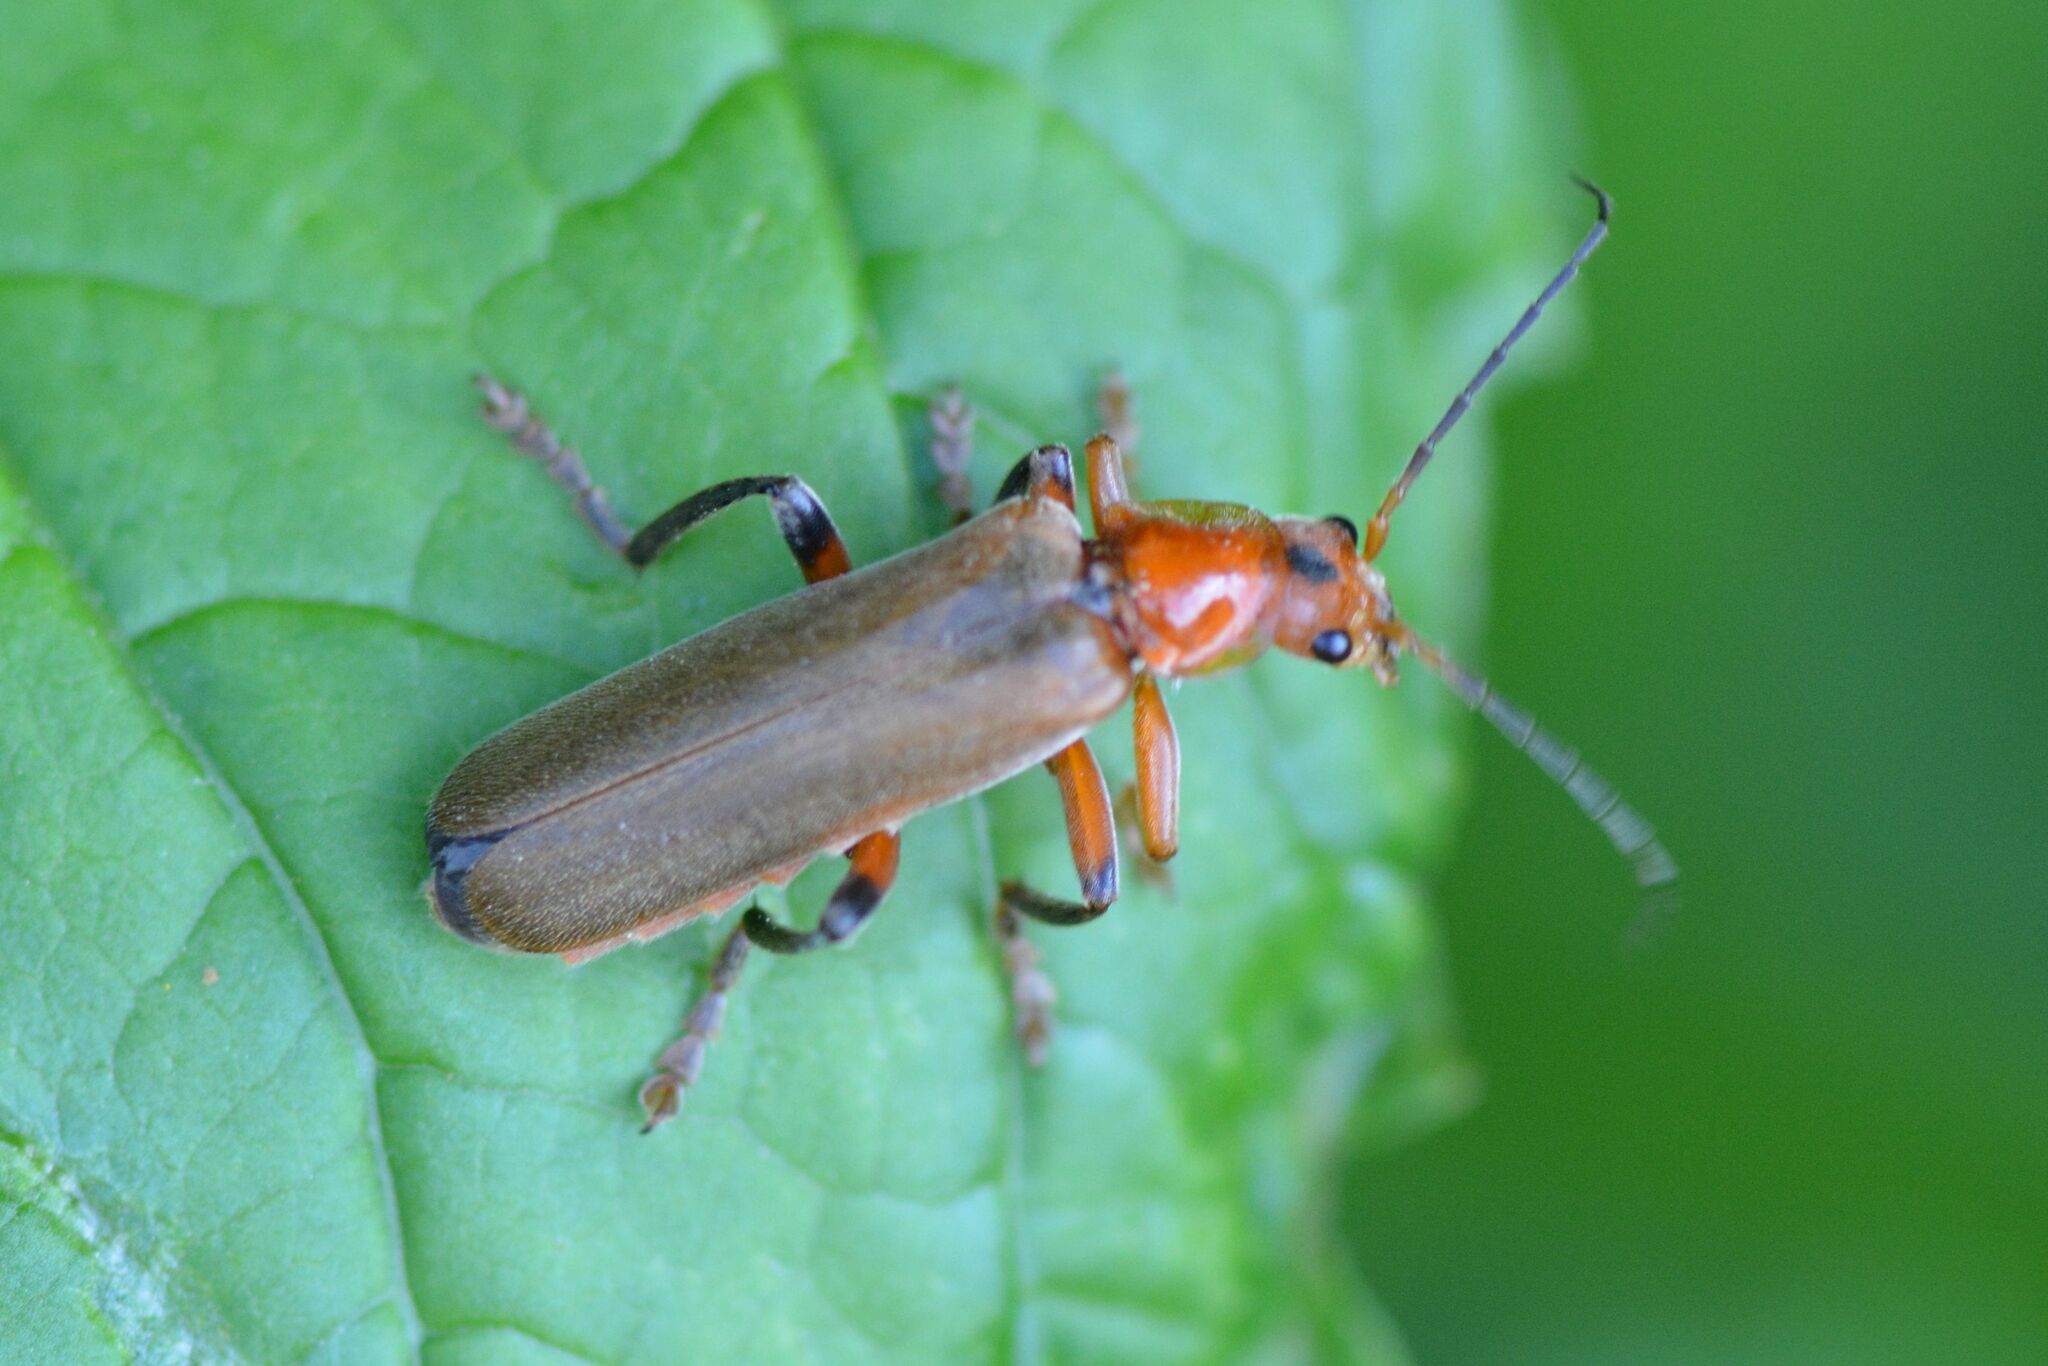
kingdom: Animalia
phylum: Arthropoda
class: Insecta
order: Coleoptera
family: Cantharidae
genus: Cantharis
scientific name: Cantharis livida
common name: Livid soldier beetle
